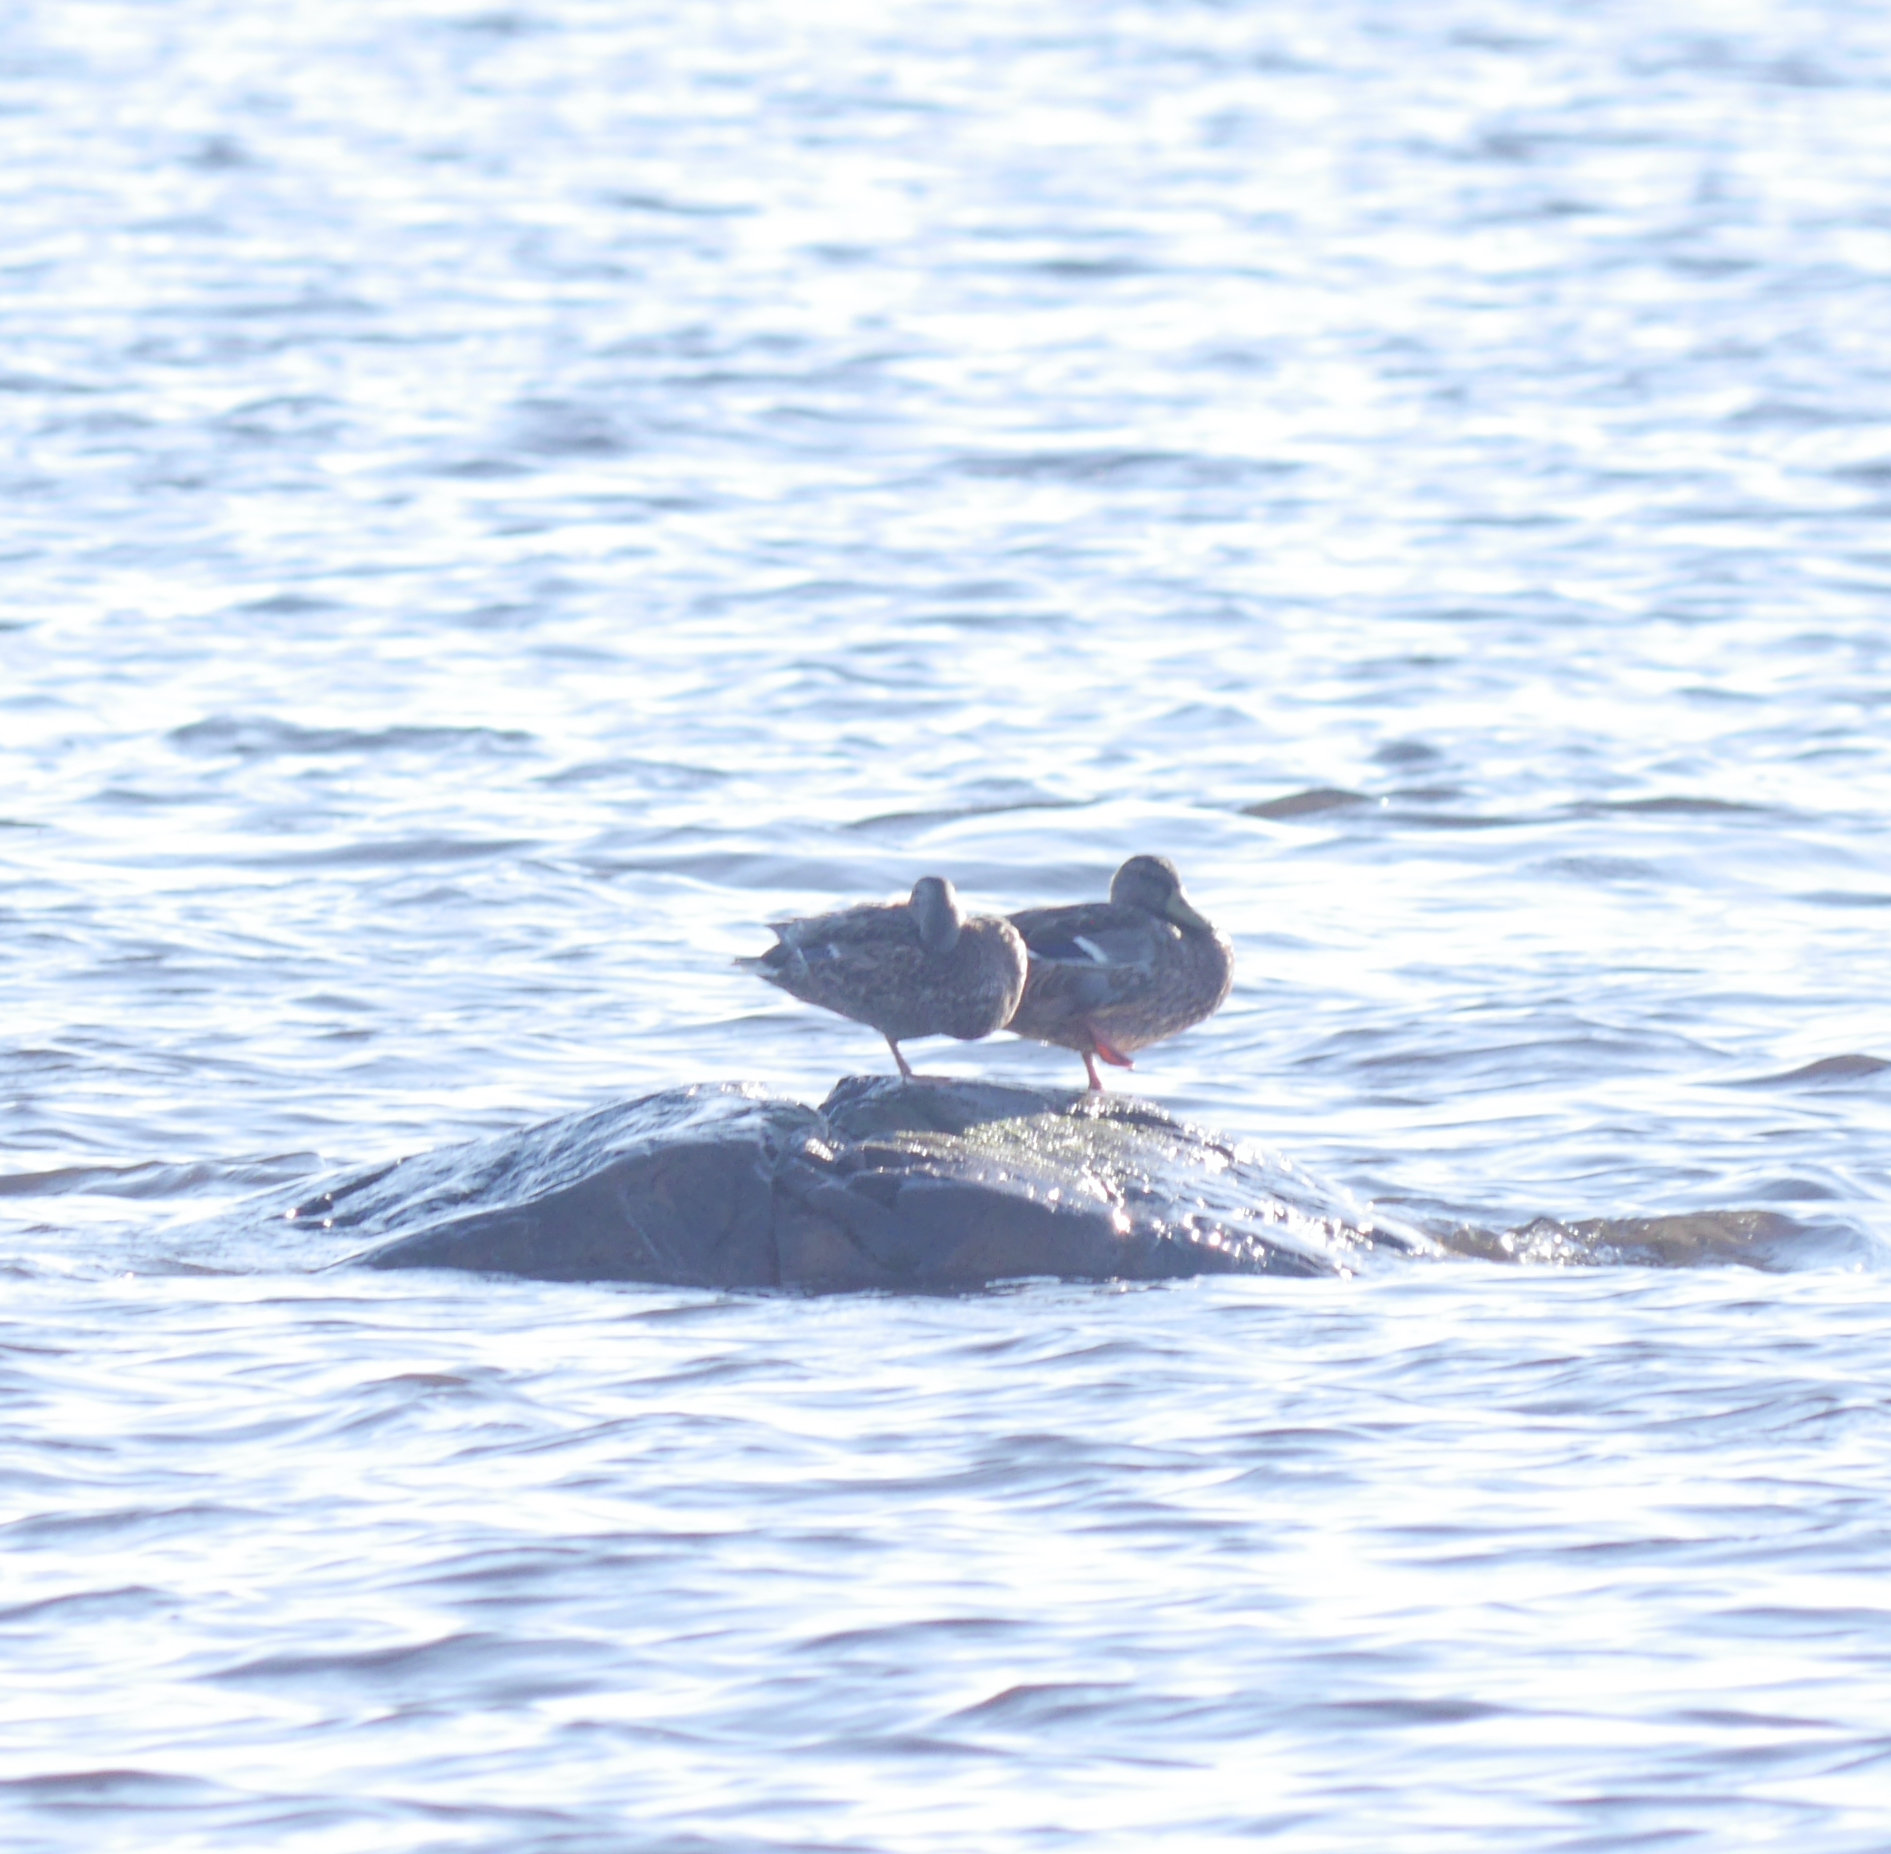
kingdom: Animalia
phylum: Chordata
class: Aves
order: Anseriformes
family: Anatidae
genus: Anas
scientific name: Anas platyrhynchos
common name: Mallard
